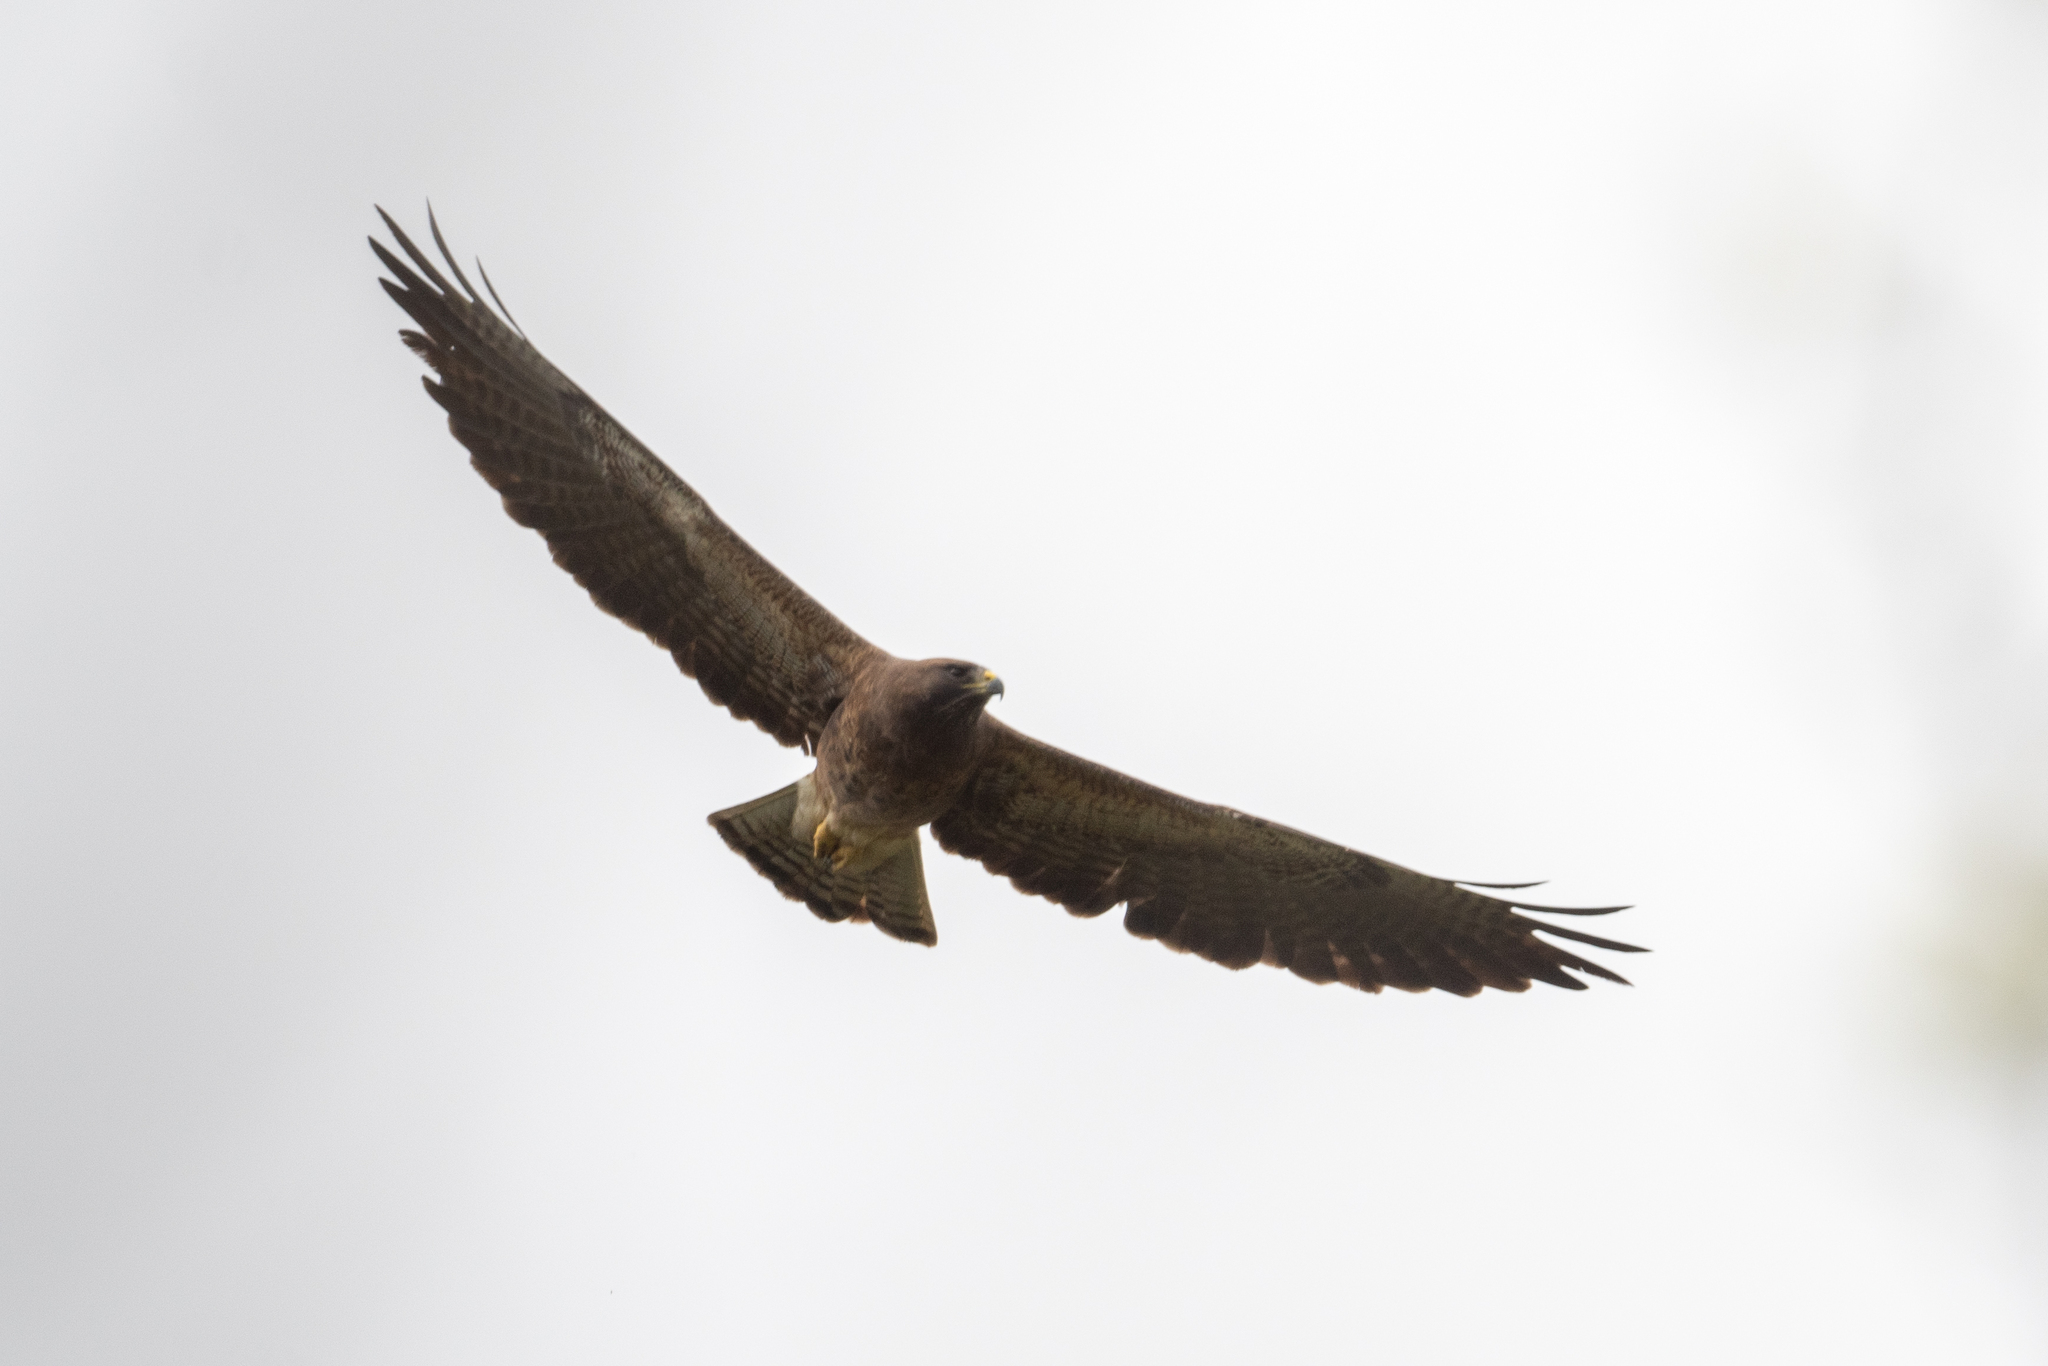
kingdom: Animalia
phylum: Chordata
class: Aves
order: Accipitriformes
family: Accipitridae
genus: Buteo
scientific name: Buteo swainsoni
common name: Swainson's hawk
